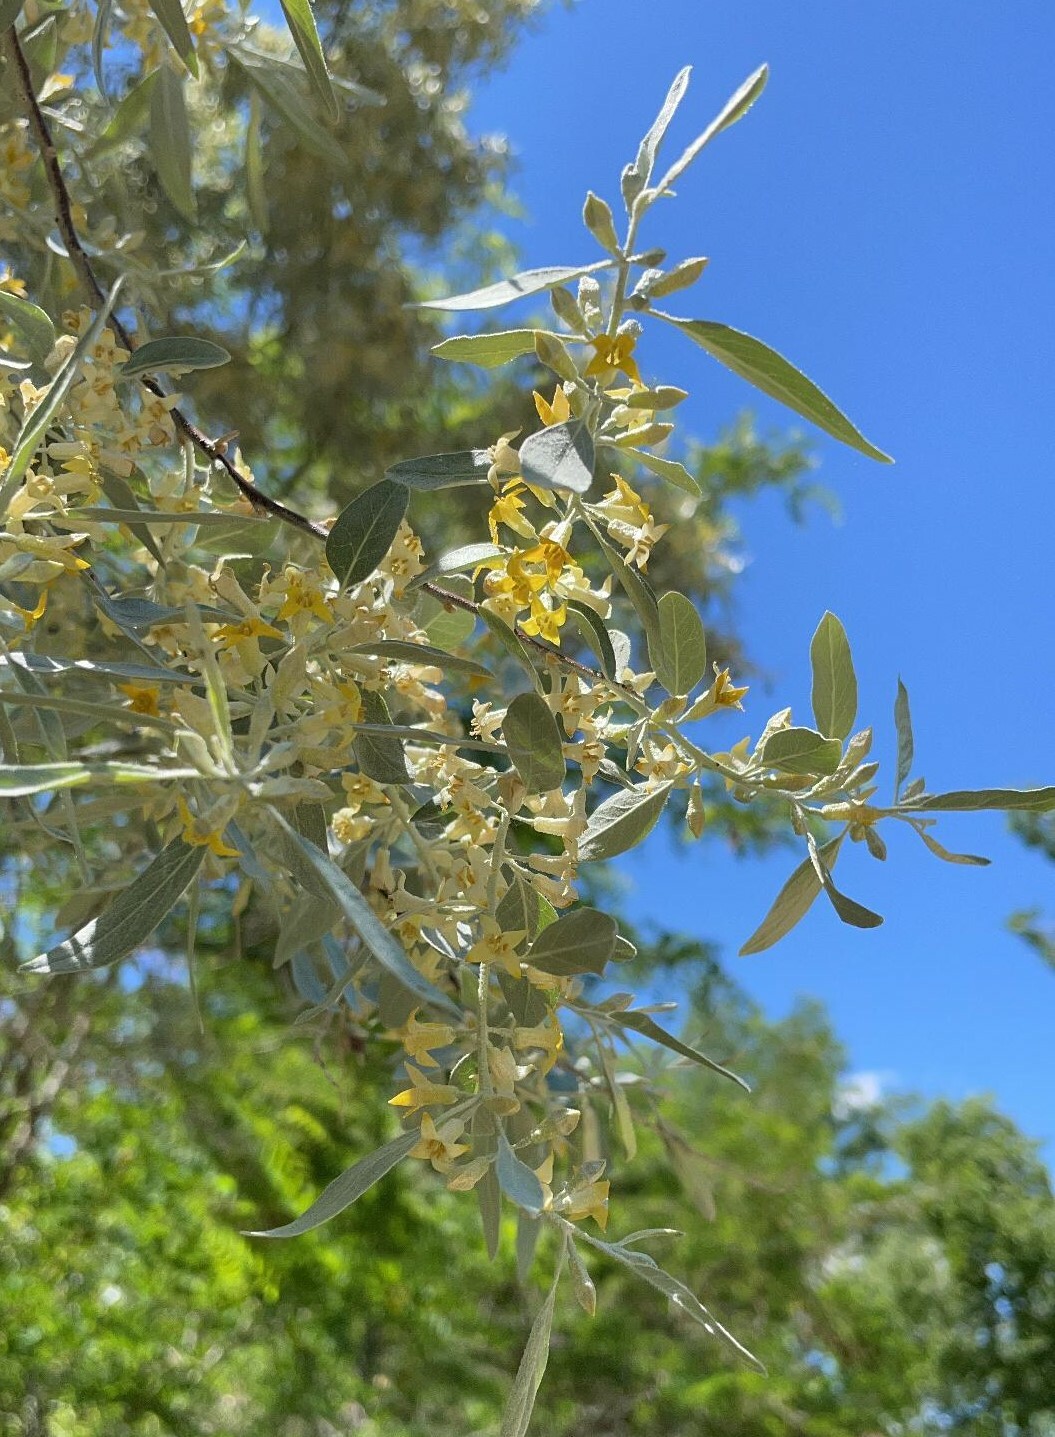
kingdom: Plantae
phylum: Tracheophyta
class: Magnoliopsida
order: Rosales
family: Elaeagnaceae
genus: Elaeagnus
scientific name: Elaeagnus angustifolia
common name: Russian olive
